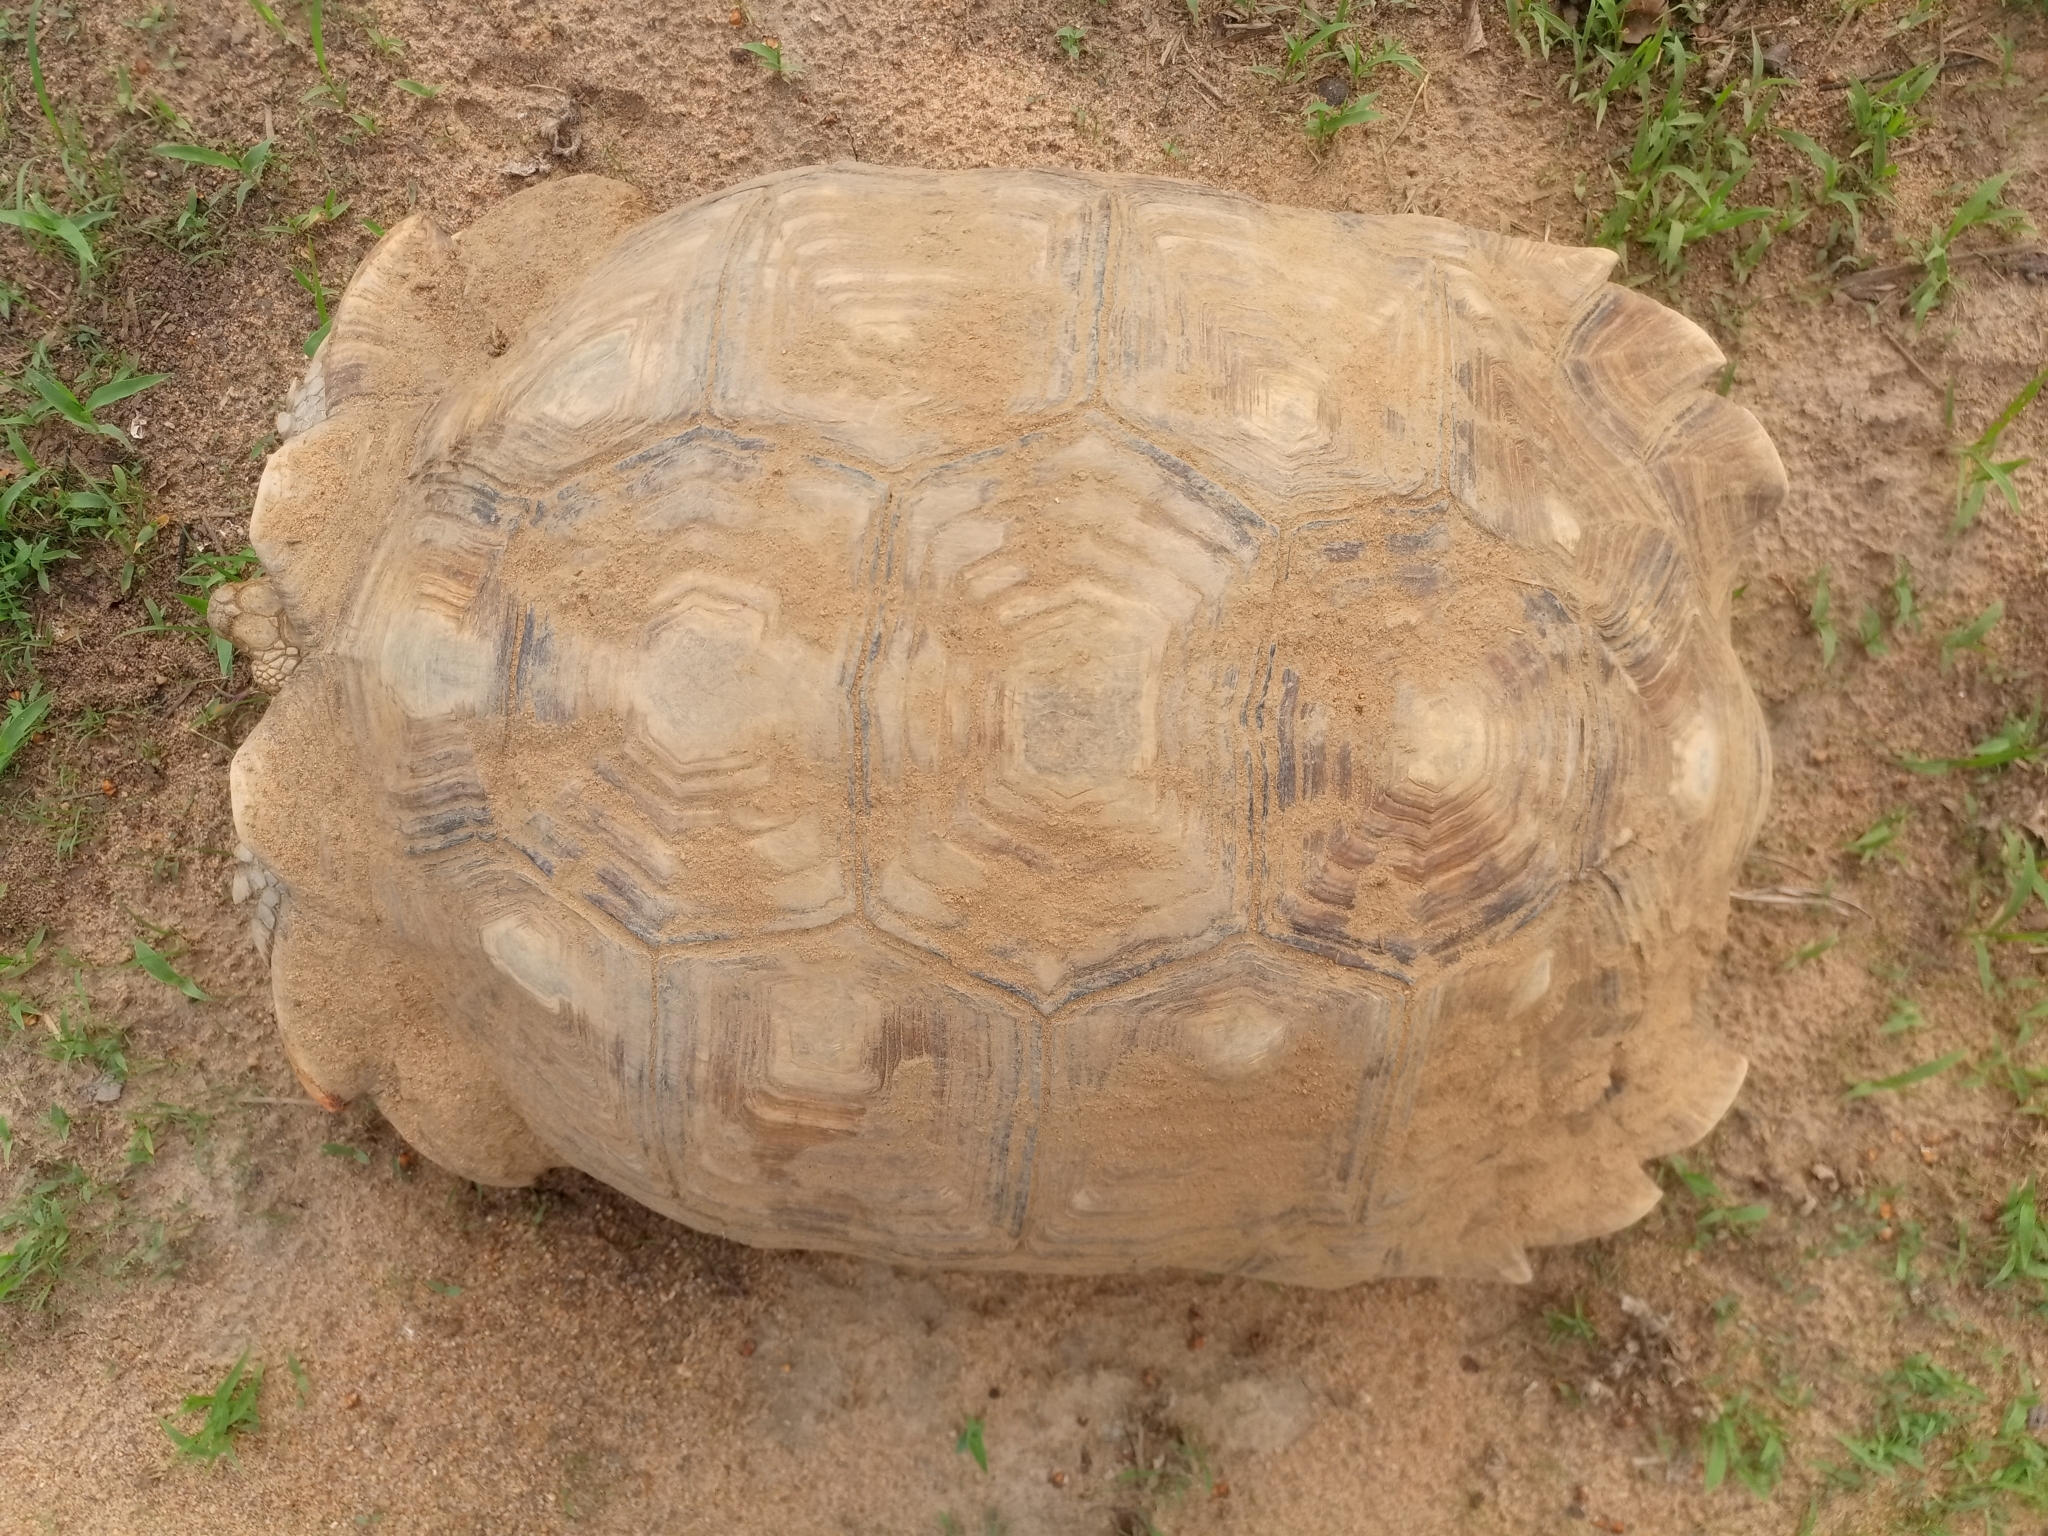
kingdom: Animalia
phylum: Chordata
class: Testudines
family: Testudinidae
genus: Centrochelys
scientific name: Centrochelys sulcata
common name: African spurred tortoise
